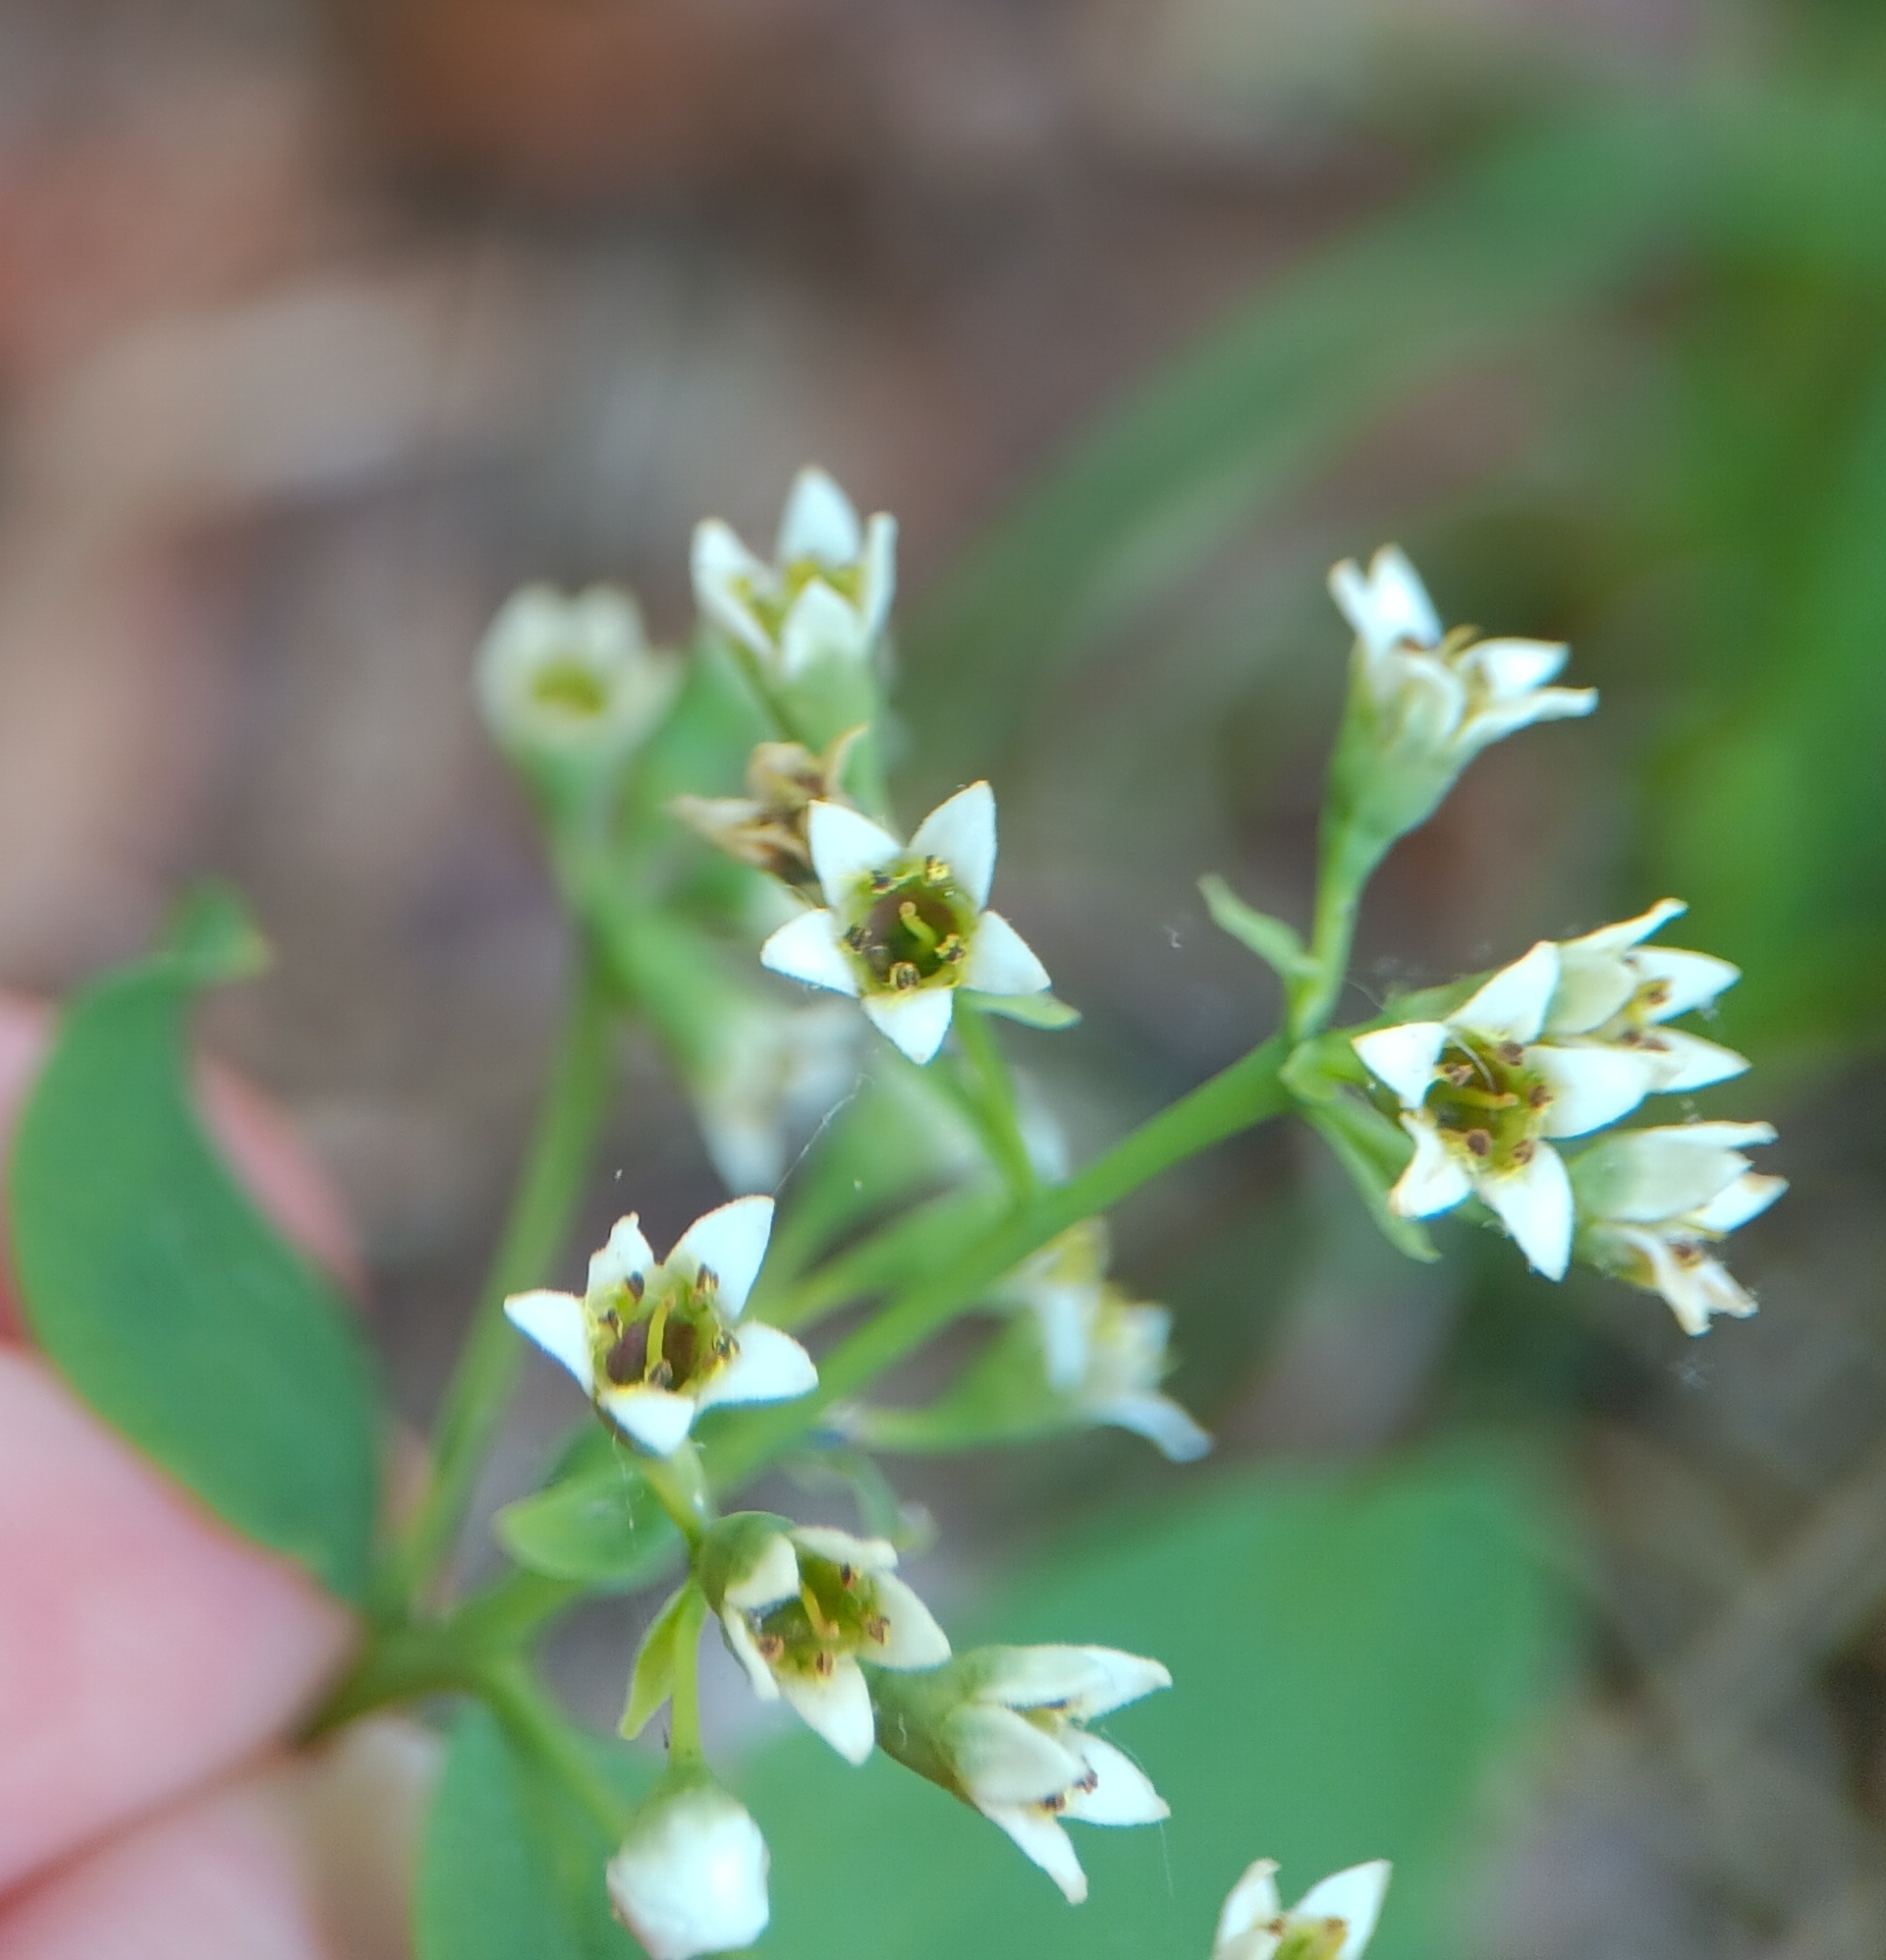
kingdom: Plantae
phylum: Tracheophyta
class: Magnoliopsida
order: Santalales
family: Comandraceae
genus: Comandra
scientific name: Comandra umbellata
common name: Bastard toadflax
